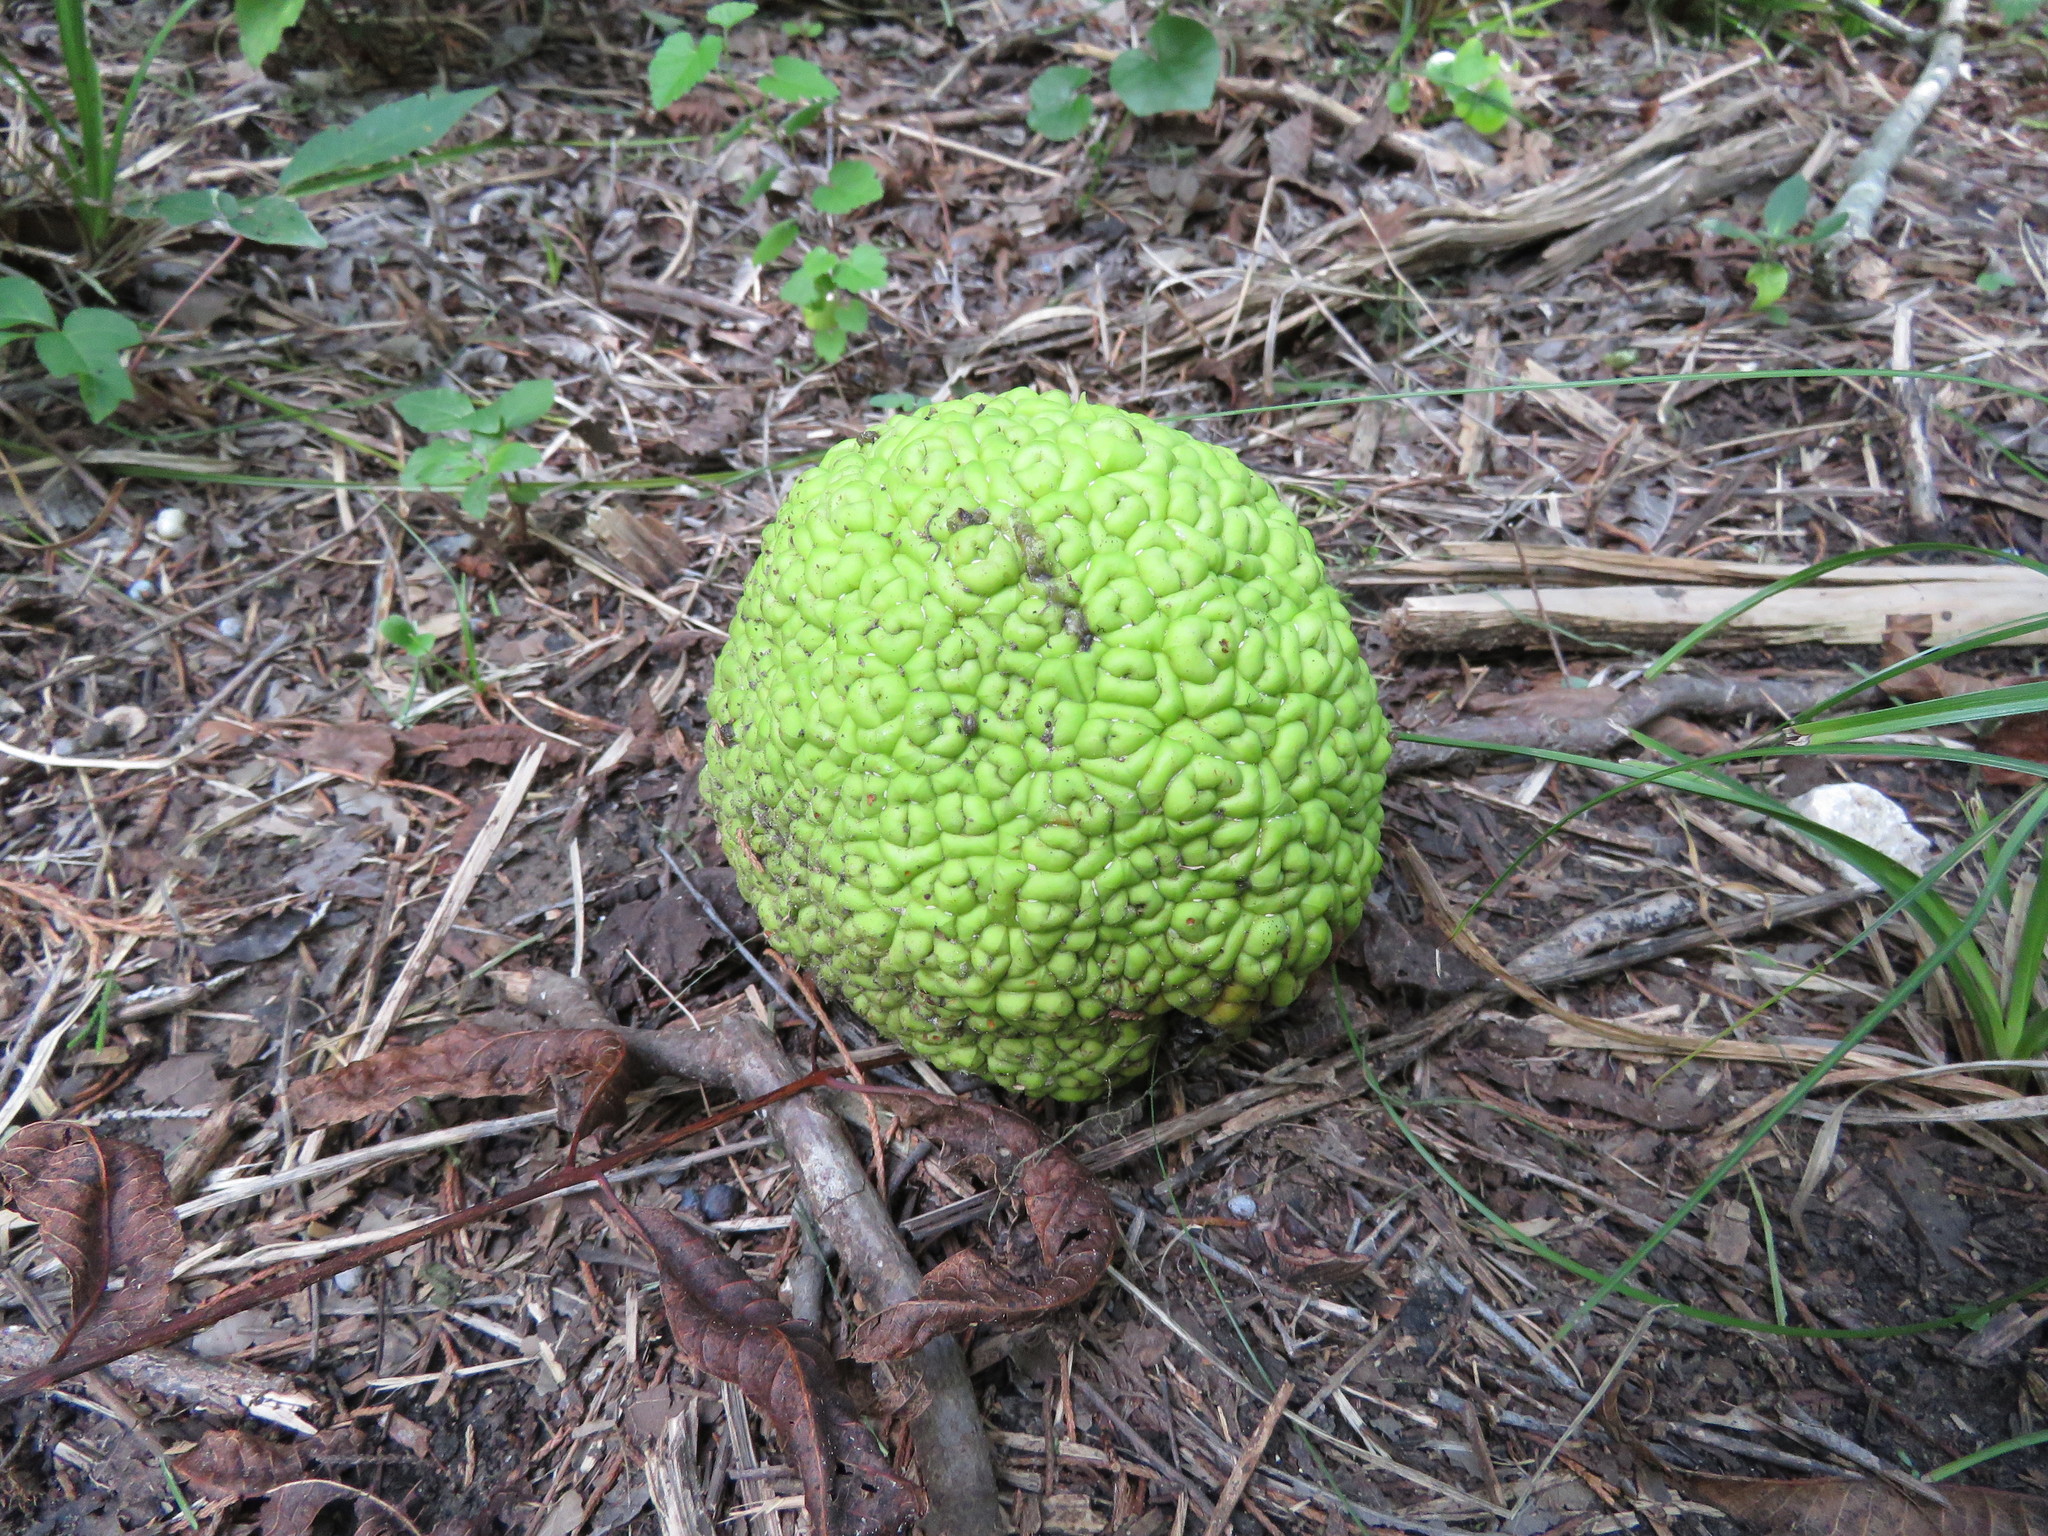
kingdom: Plantae
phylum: Tracheophyta
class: Magnoliopsida
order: Rosales
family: Moraceae
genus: Maclura
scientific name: Maclura pomifera
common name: Osage-orange
